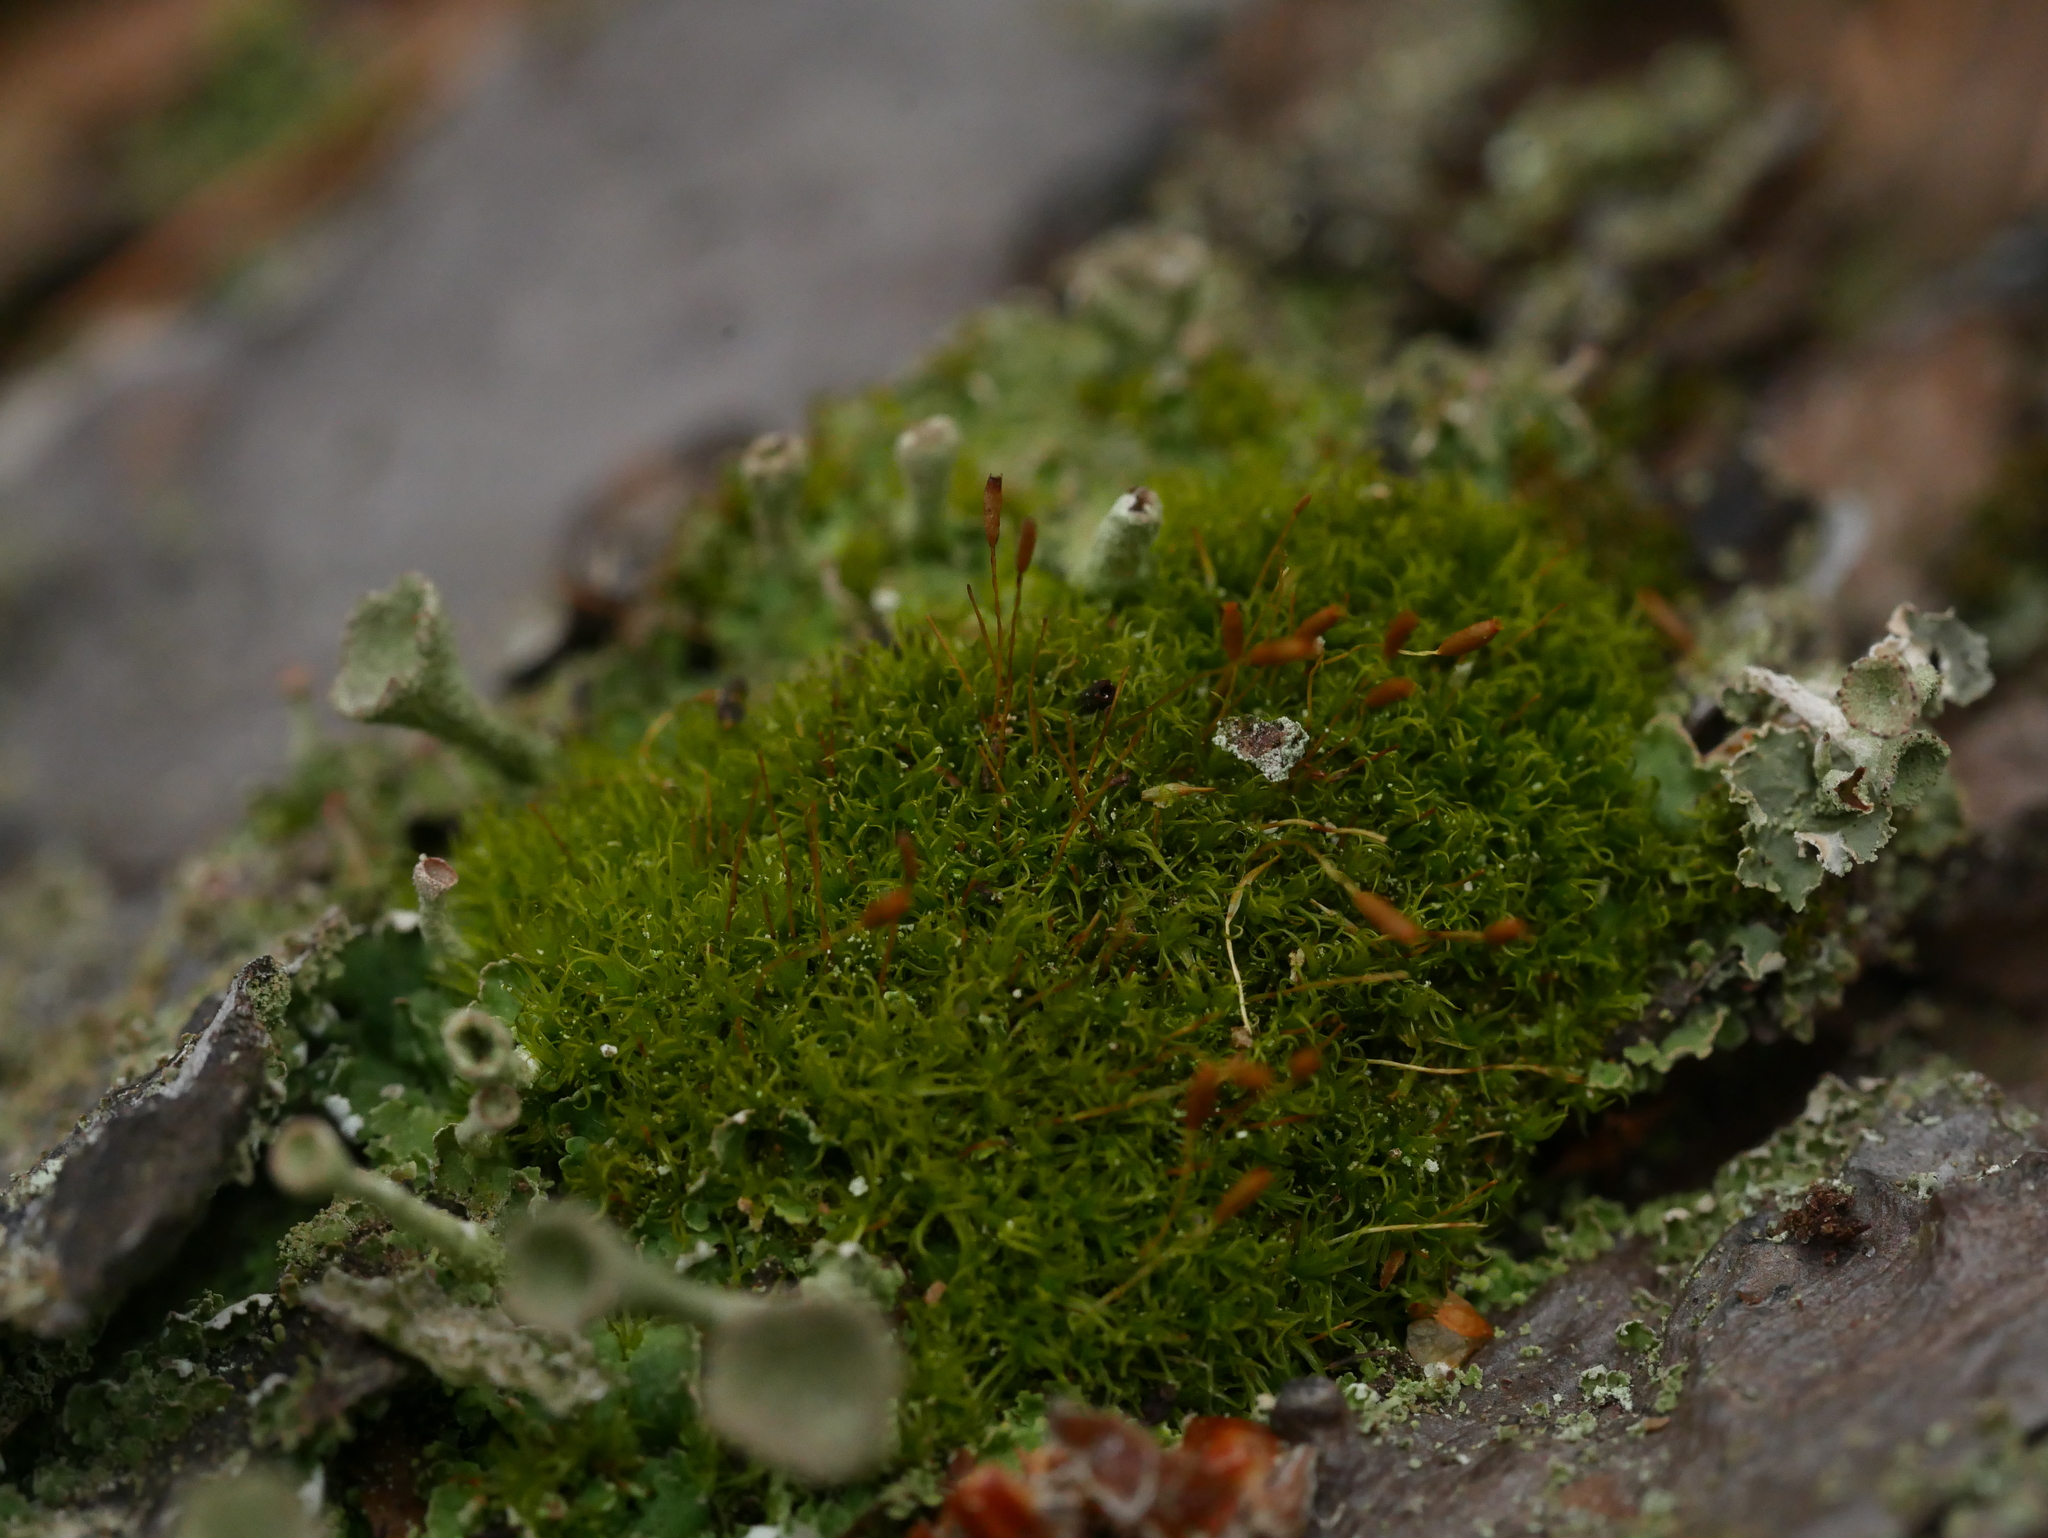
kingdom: Plantae
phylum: Bryophyta
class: Bryopsida
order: Dicranales
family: Rhabdoweisiaceae
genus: Dicranoweisia
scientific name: Dicranoweisia cirrata
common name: Common pincushion
